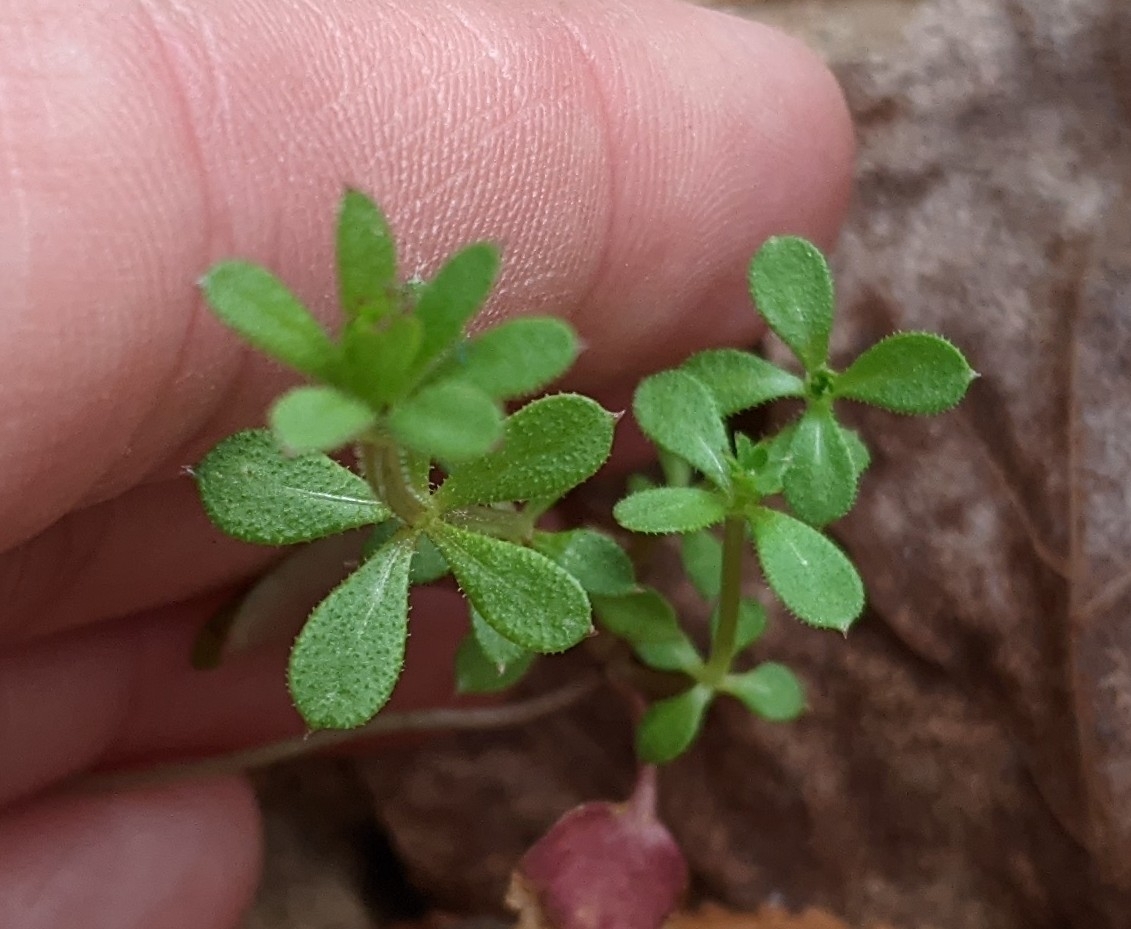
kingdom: Plantae
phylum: Tracheophyta
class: Magnoliopsida
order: Gentianales
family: Rubiaceae
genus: Galium
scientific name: Galium aparine
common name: Cleavers
